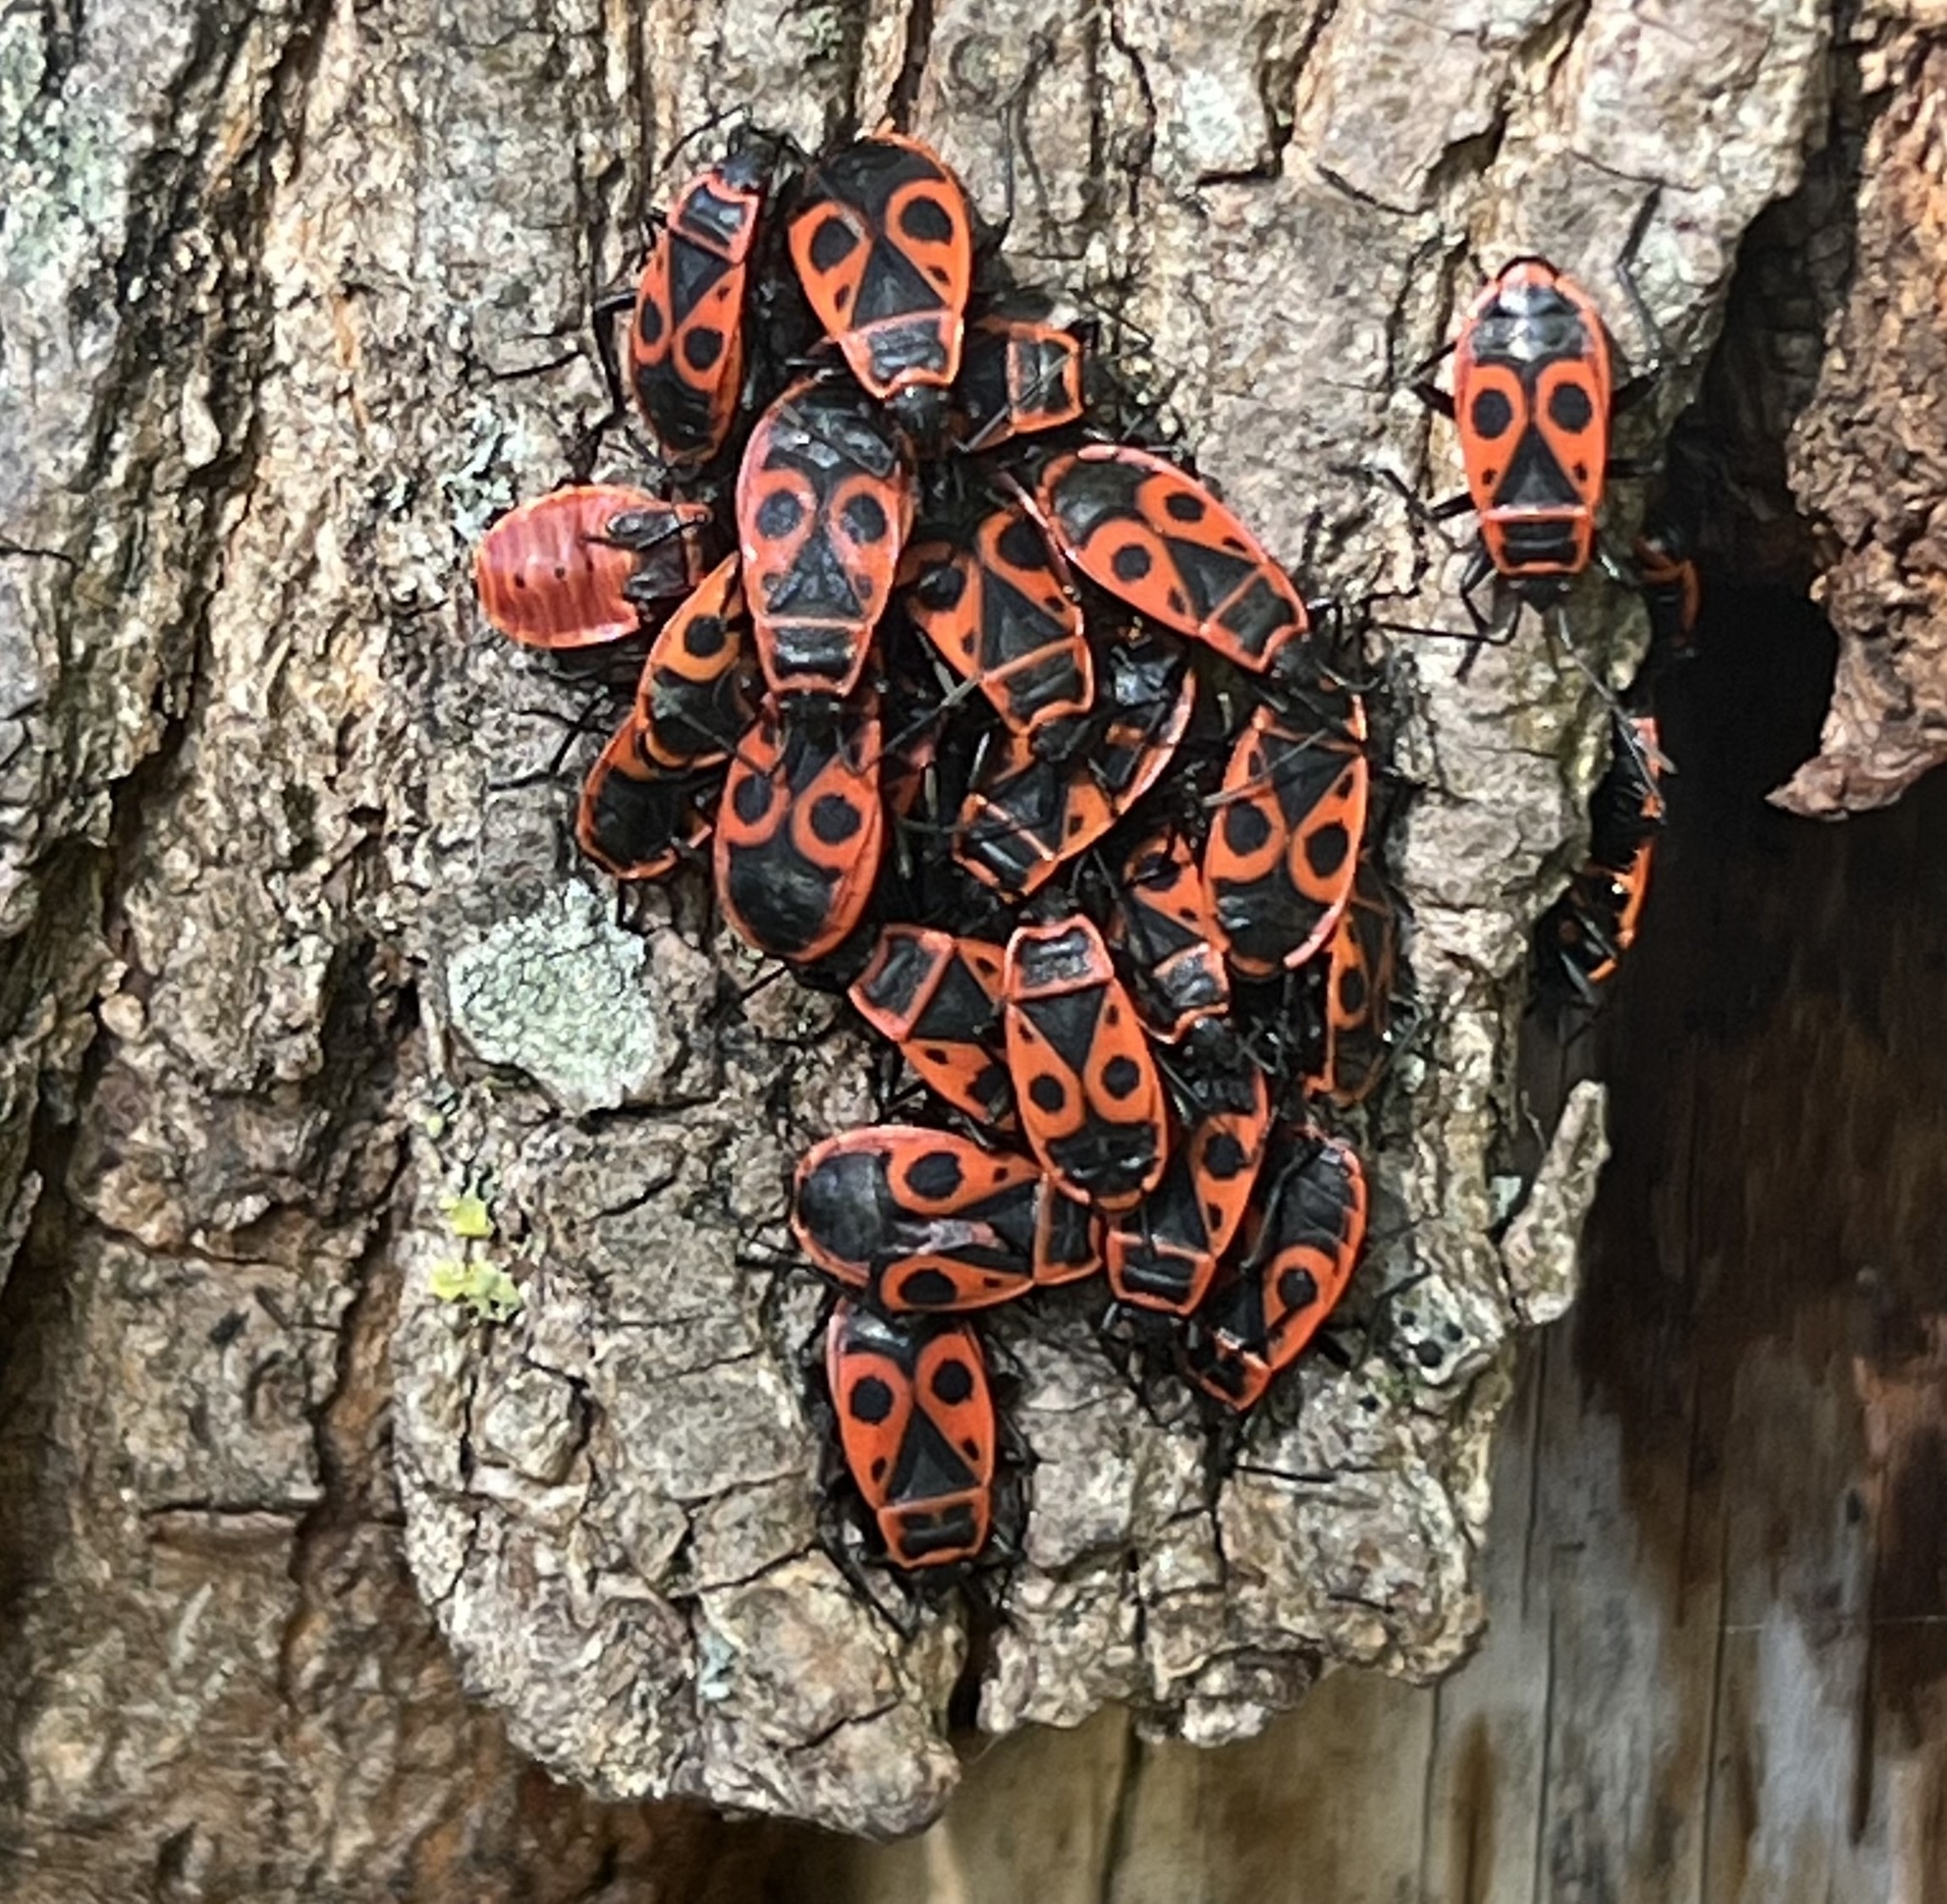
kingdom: Animalia
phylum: Arthropoda
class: Insecta
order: Hemiptera
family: Pyrrhocoridae
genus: Pyrrhocoris
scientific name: Pyrrhocoris apterus
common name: Firebug
